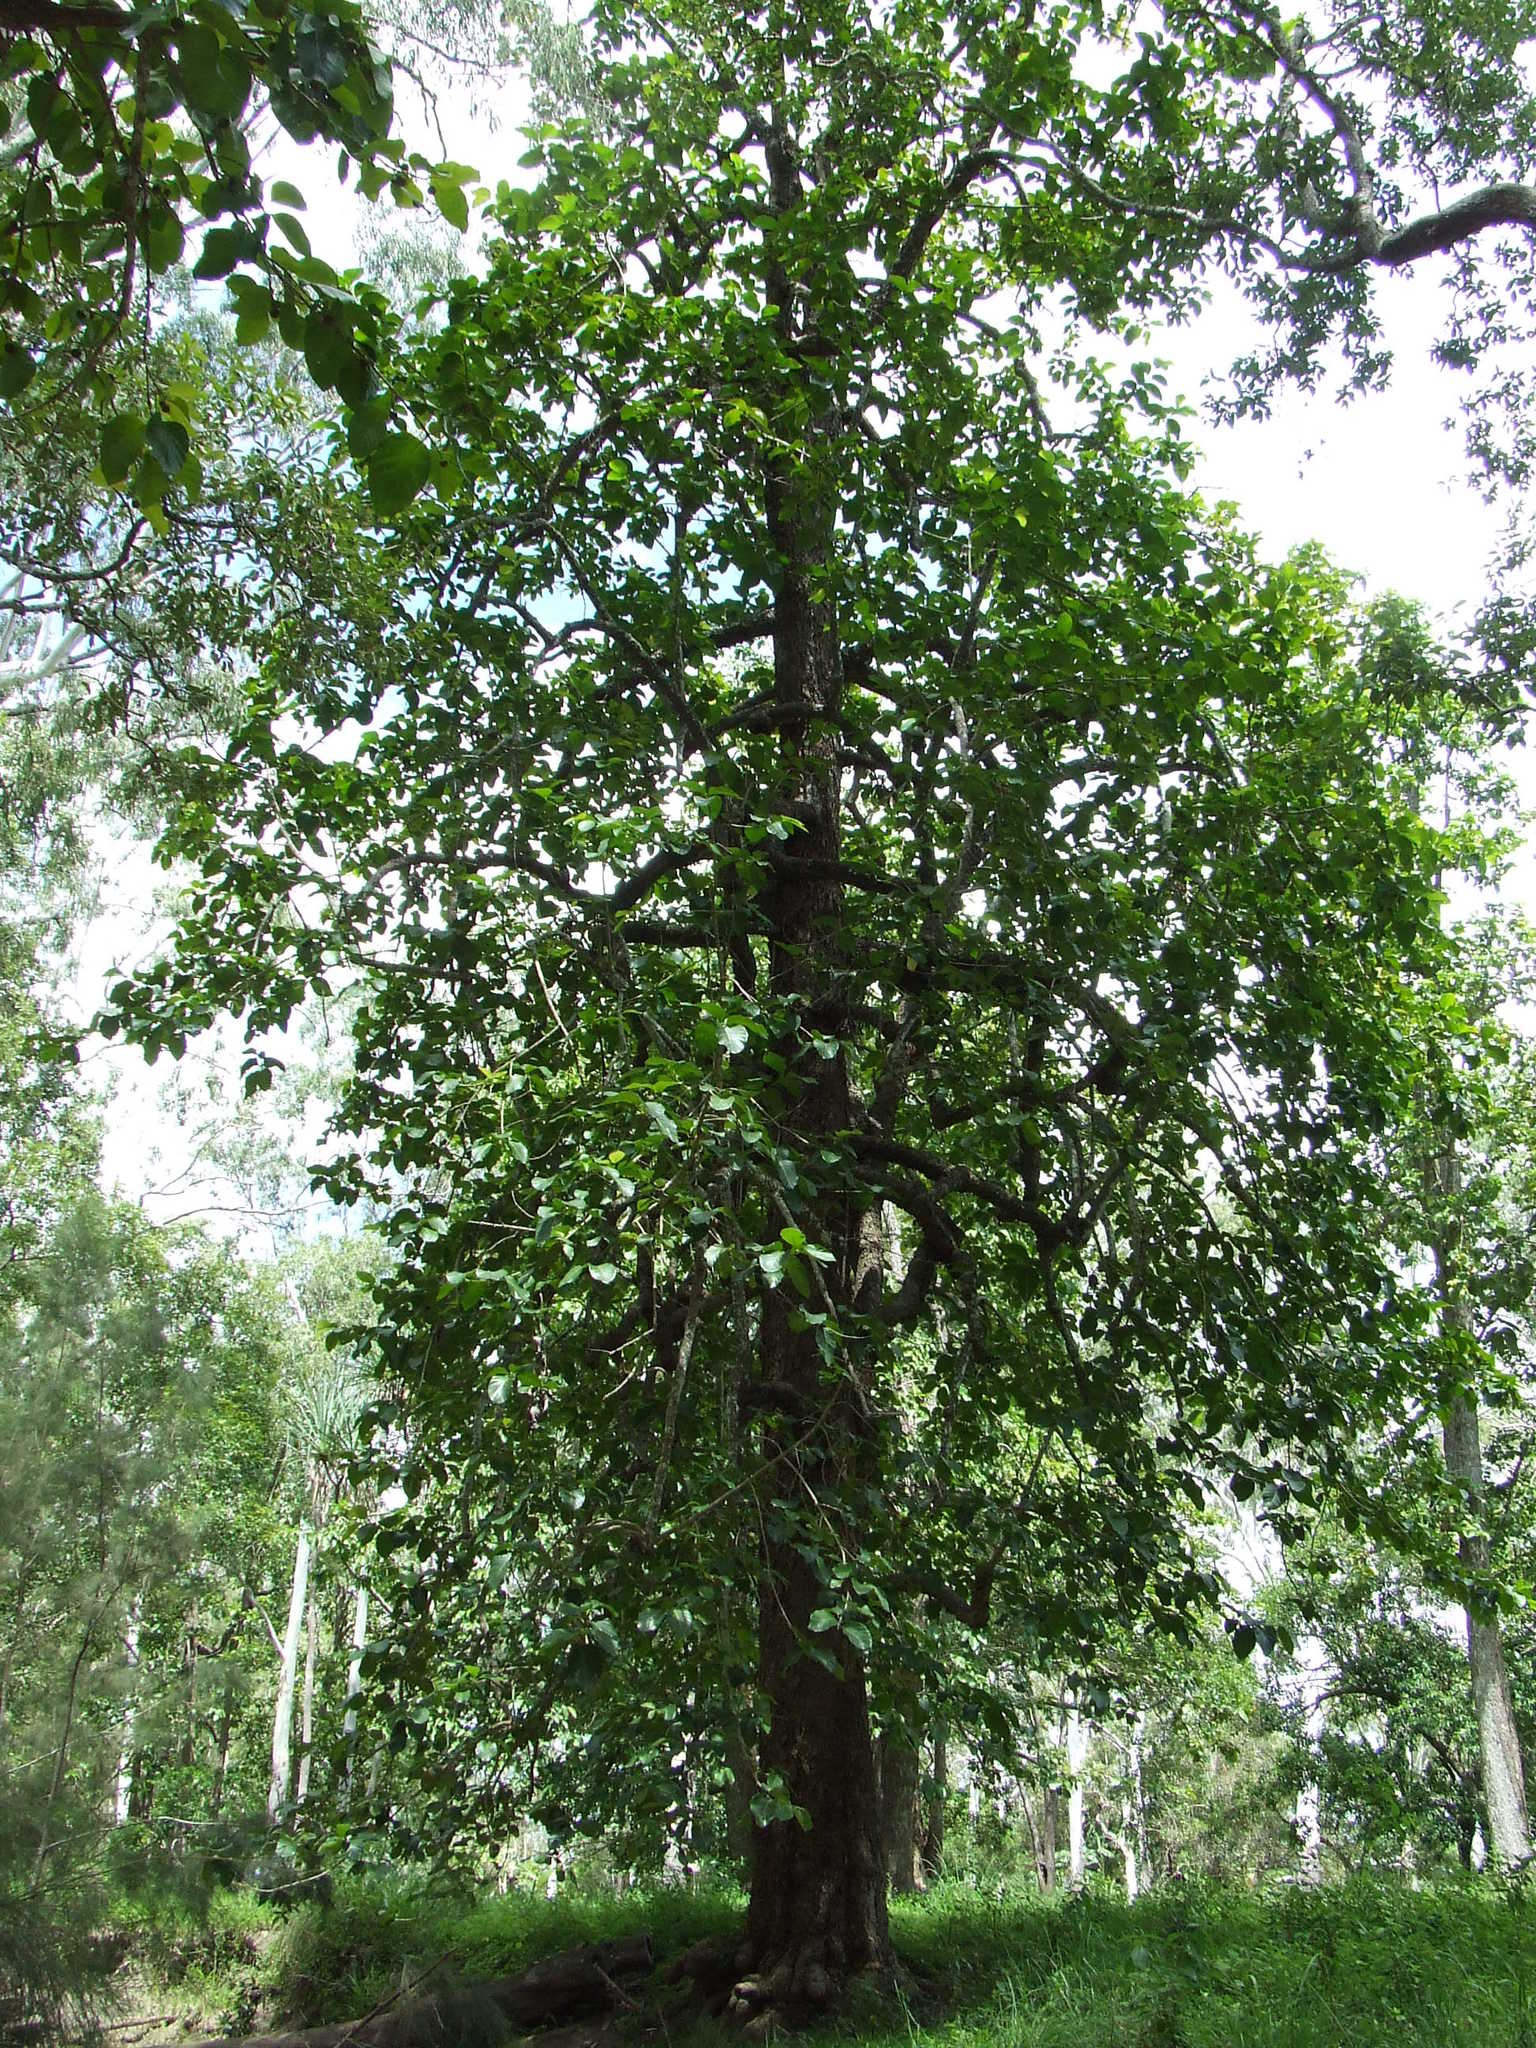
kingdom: Plantae
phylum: Tracheophyta
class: Magnoliopsida
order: Gentianales
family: Rubiaceae
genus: Nauclea
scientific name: Nauclea orientalis
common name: Leichhardt-pine
